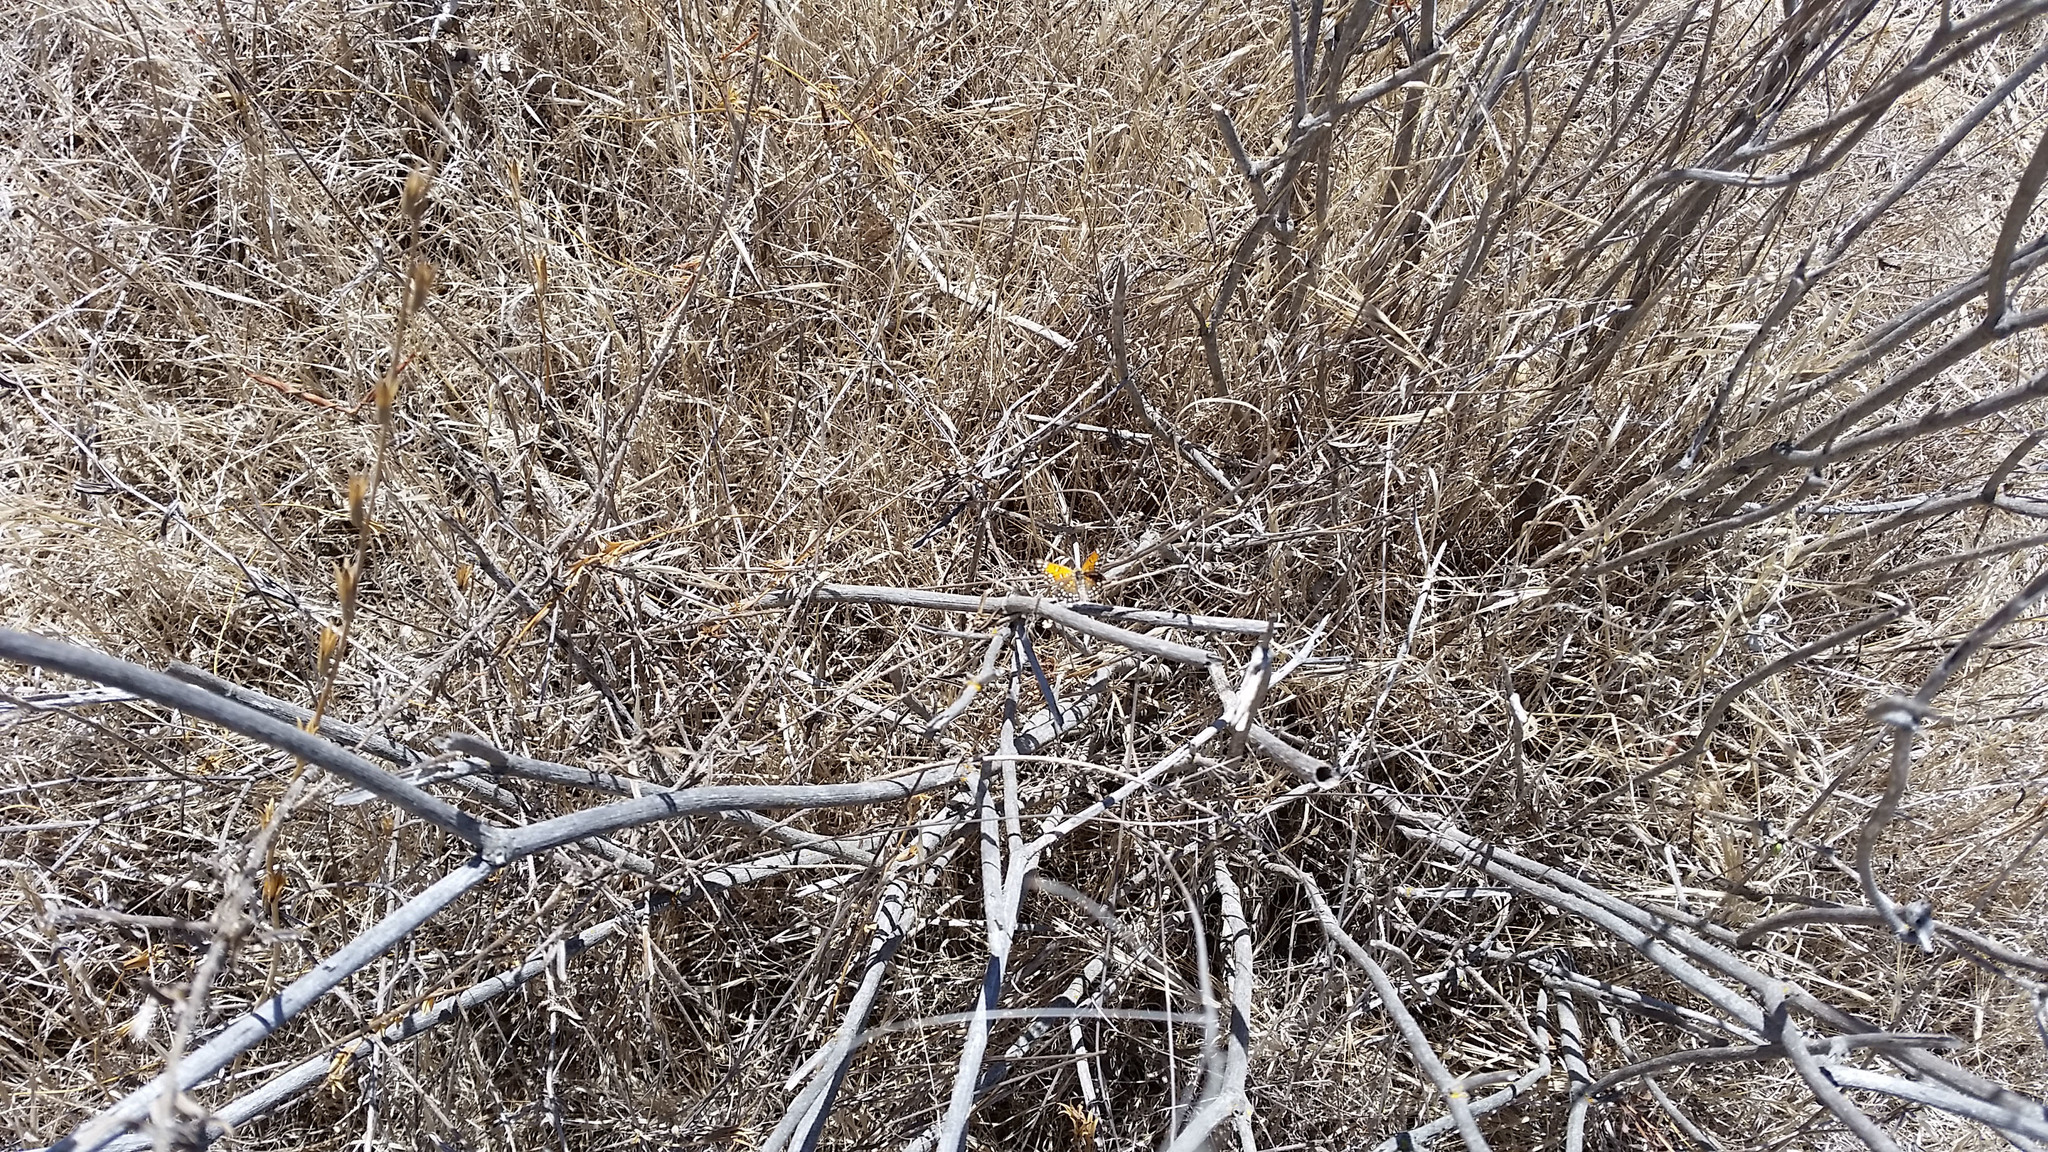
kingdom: Animalia
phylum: Arthropoda
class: Insecta
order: Lepidoptera
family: Riodinidae
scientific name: Riodinidae
